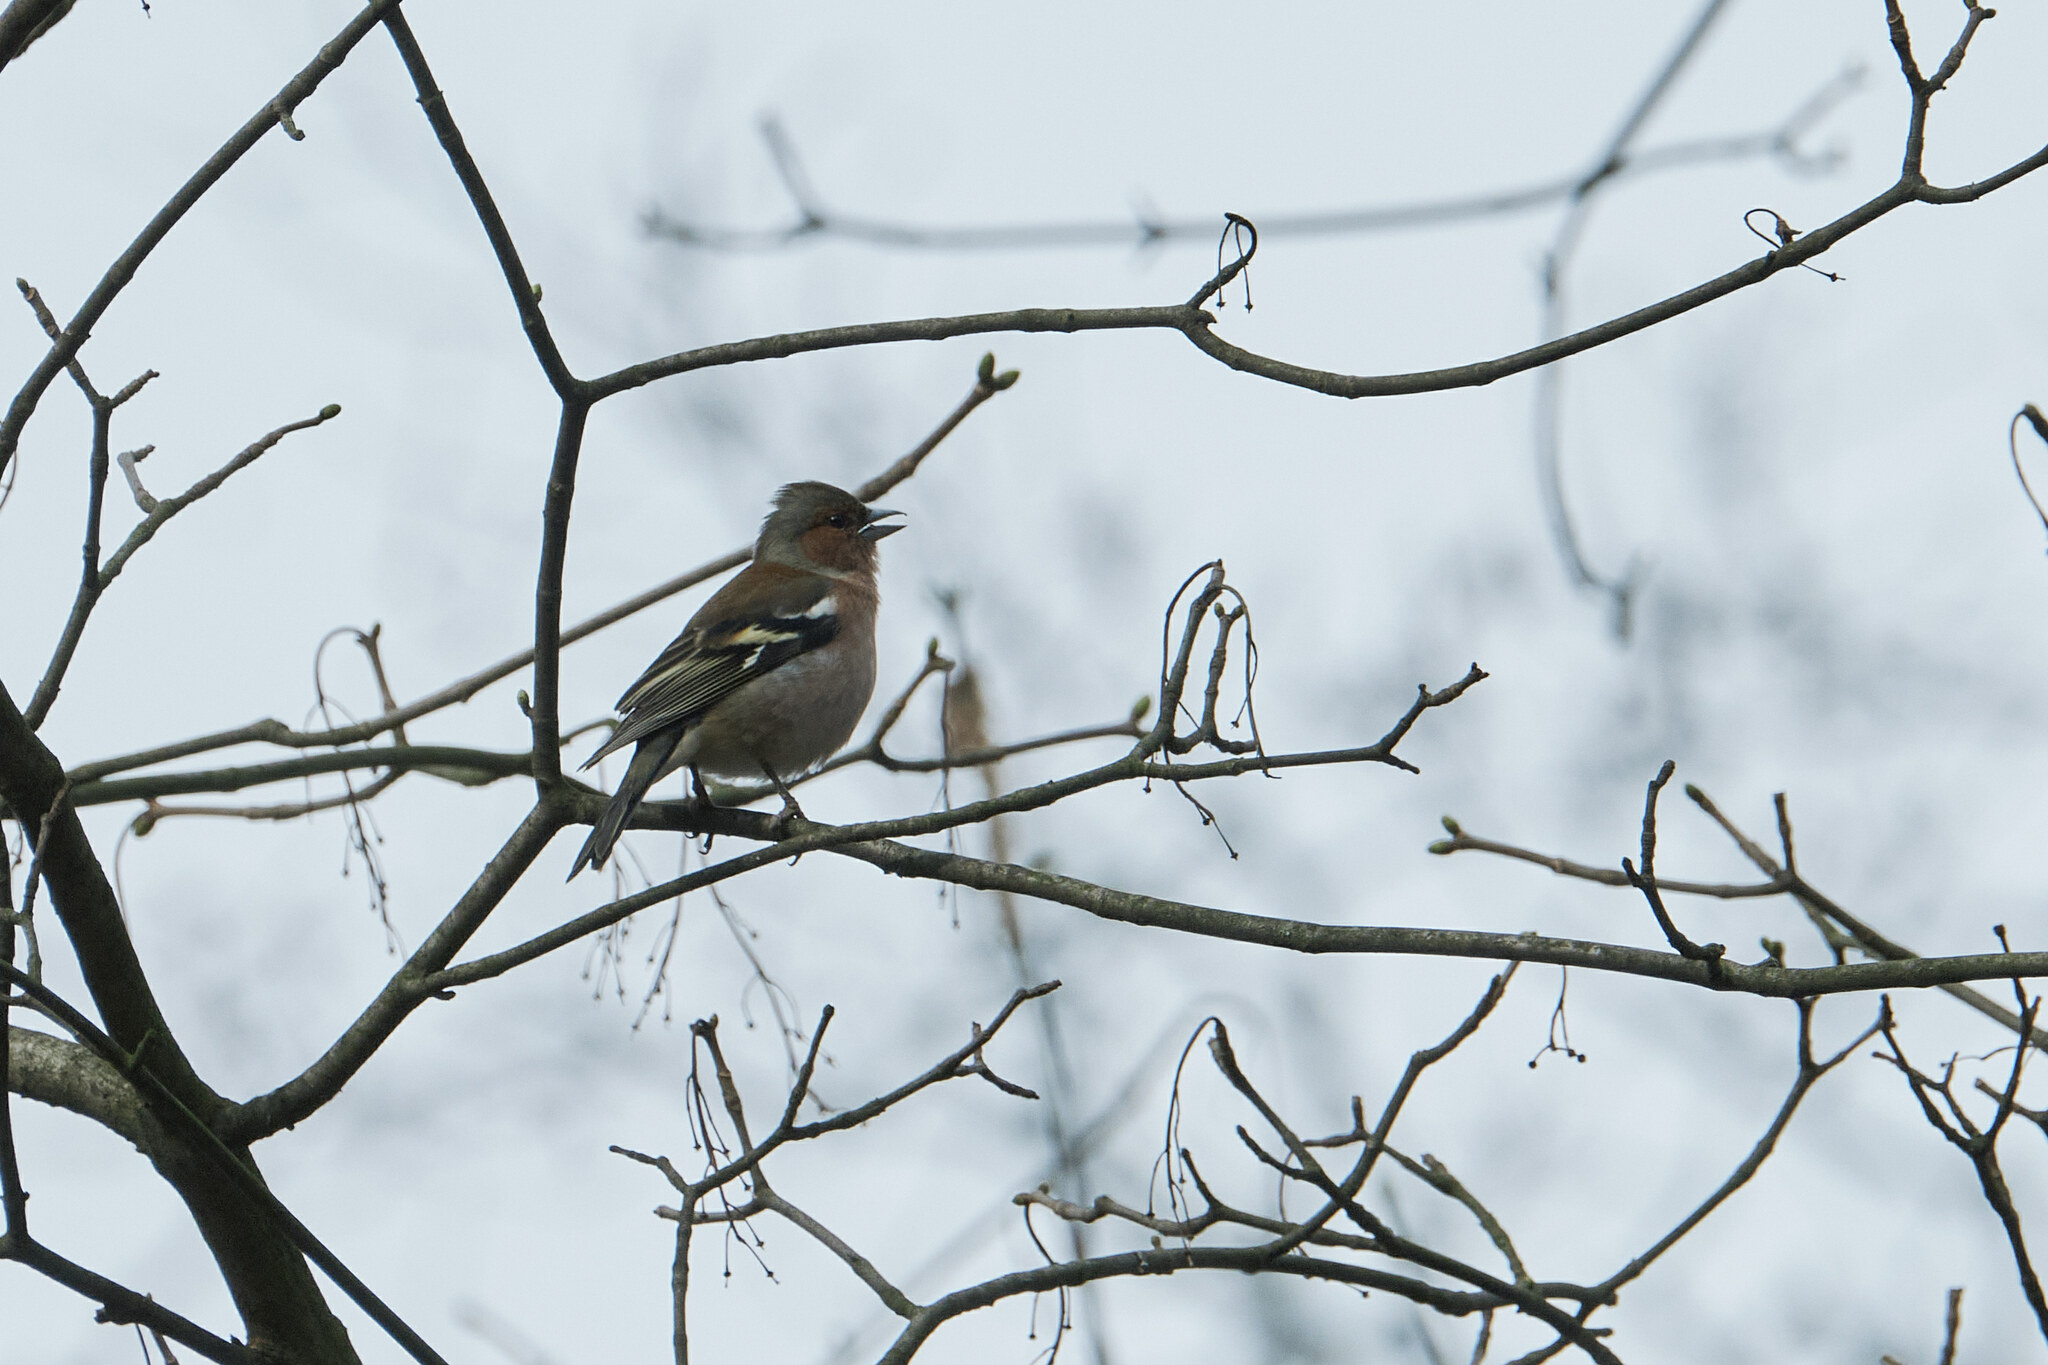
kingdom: Animalia
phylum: Chordata
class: Aves
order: Passeriformes
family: Fringillidae
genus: Fringilla
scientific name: Fringilla coelebs
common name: Common chaffinch
